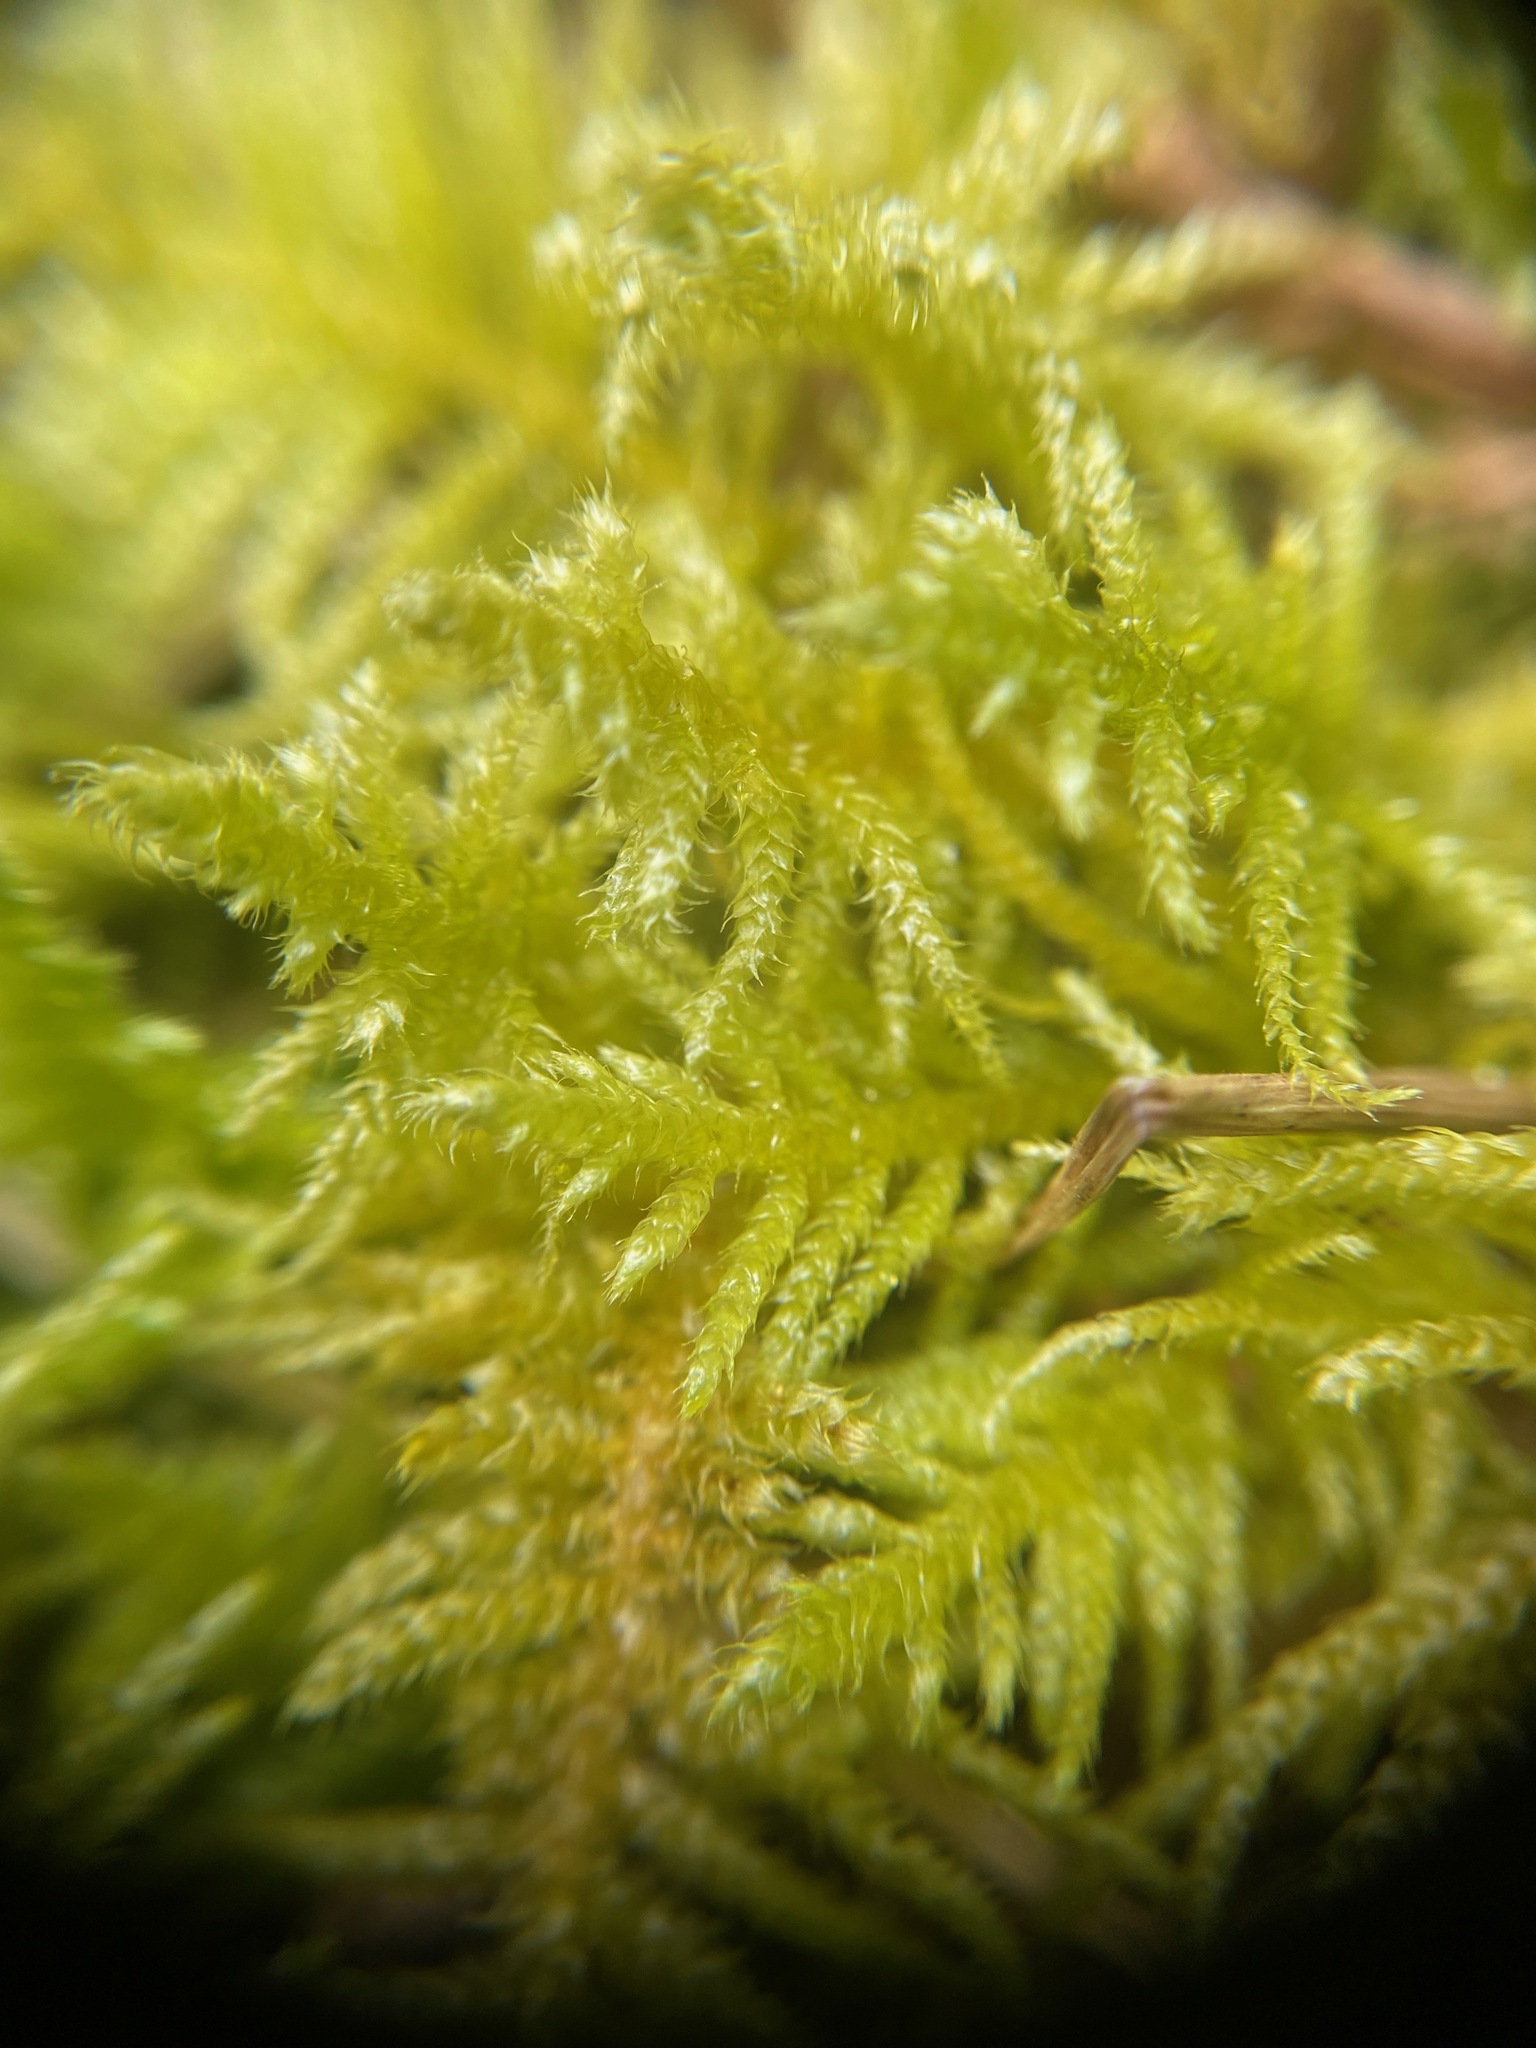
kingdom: Plantae
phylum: Bryophyta
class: Bryopsida
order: Hypnales
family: Brachytheciaceae
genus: Kindbergia
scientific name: Kindbergia oregana
